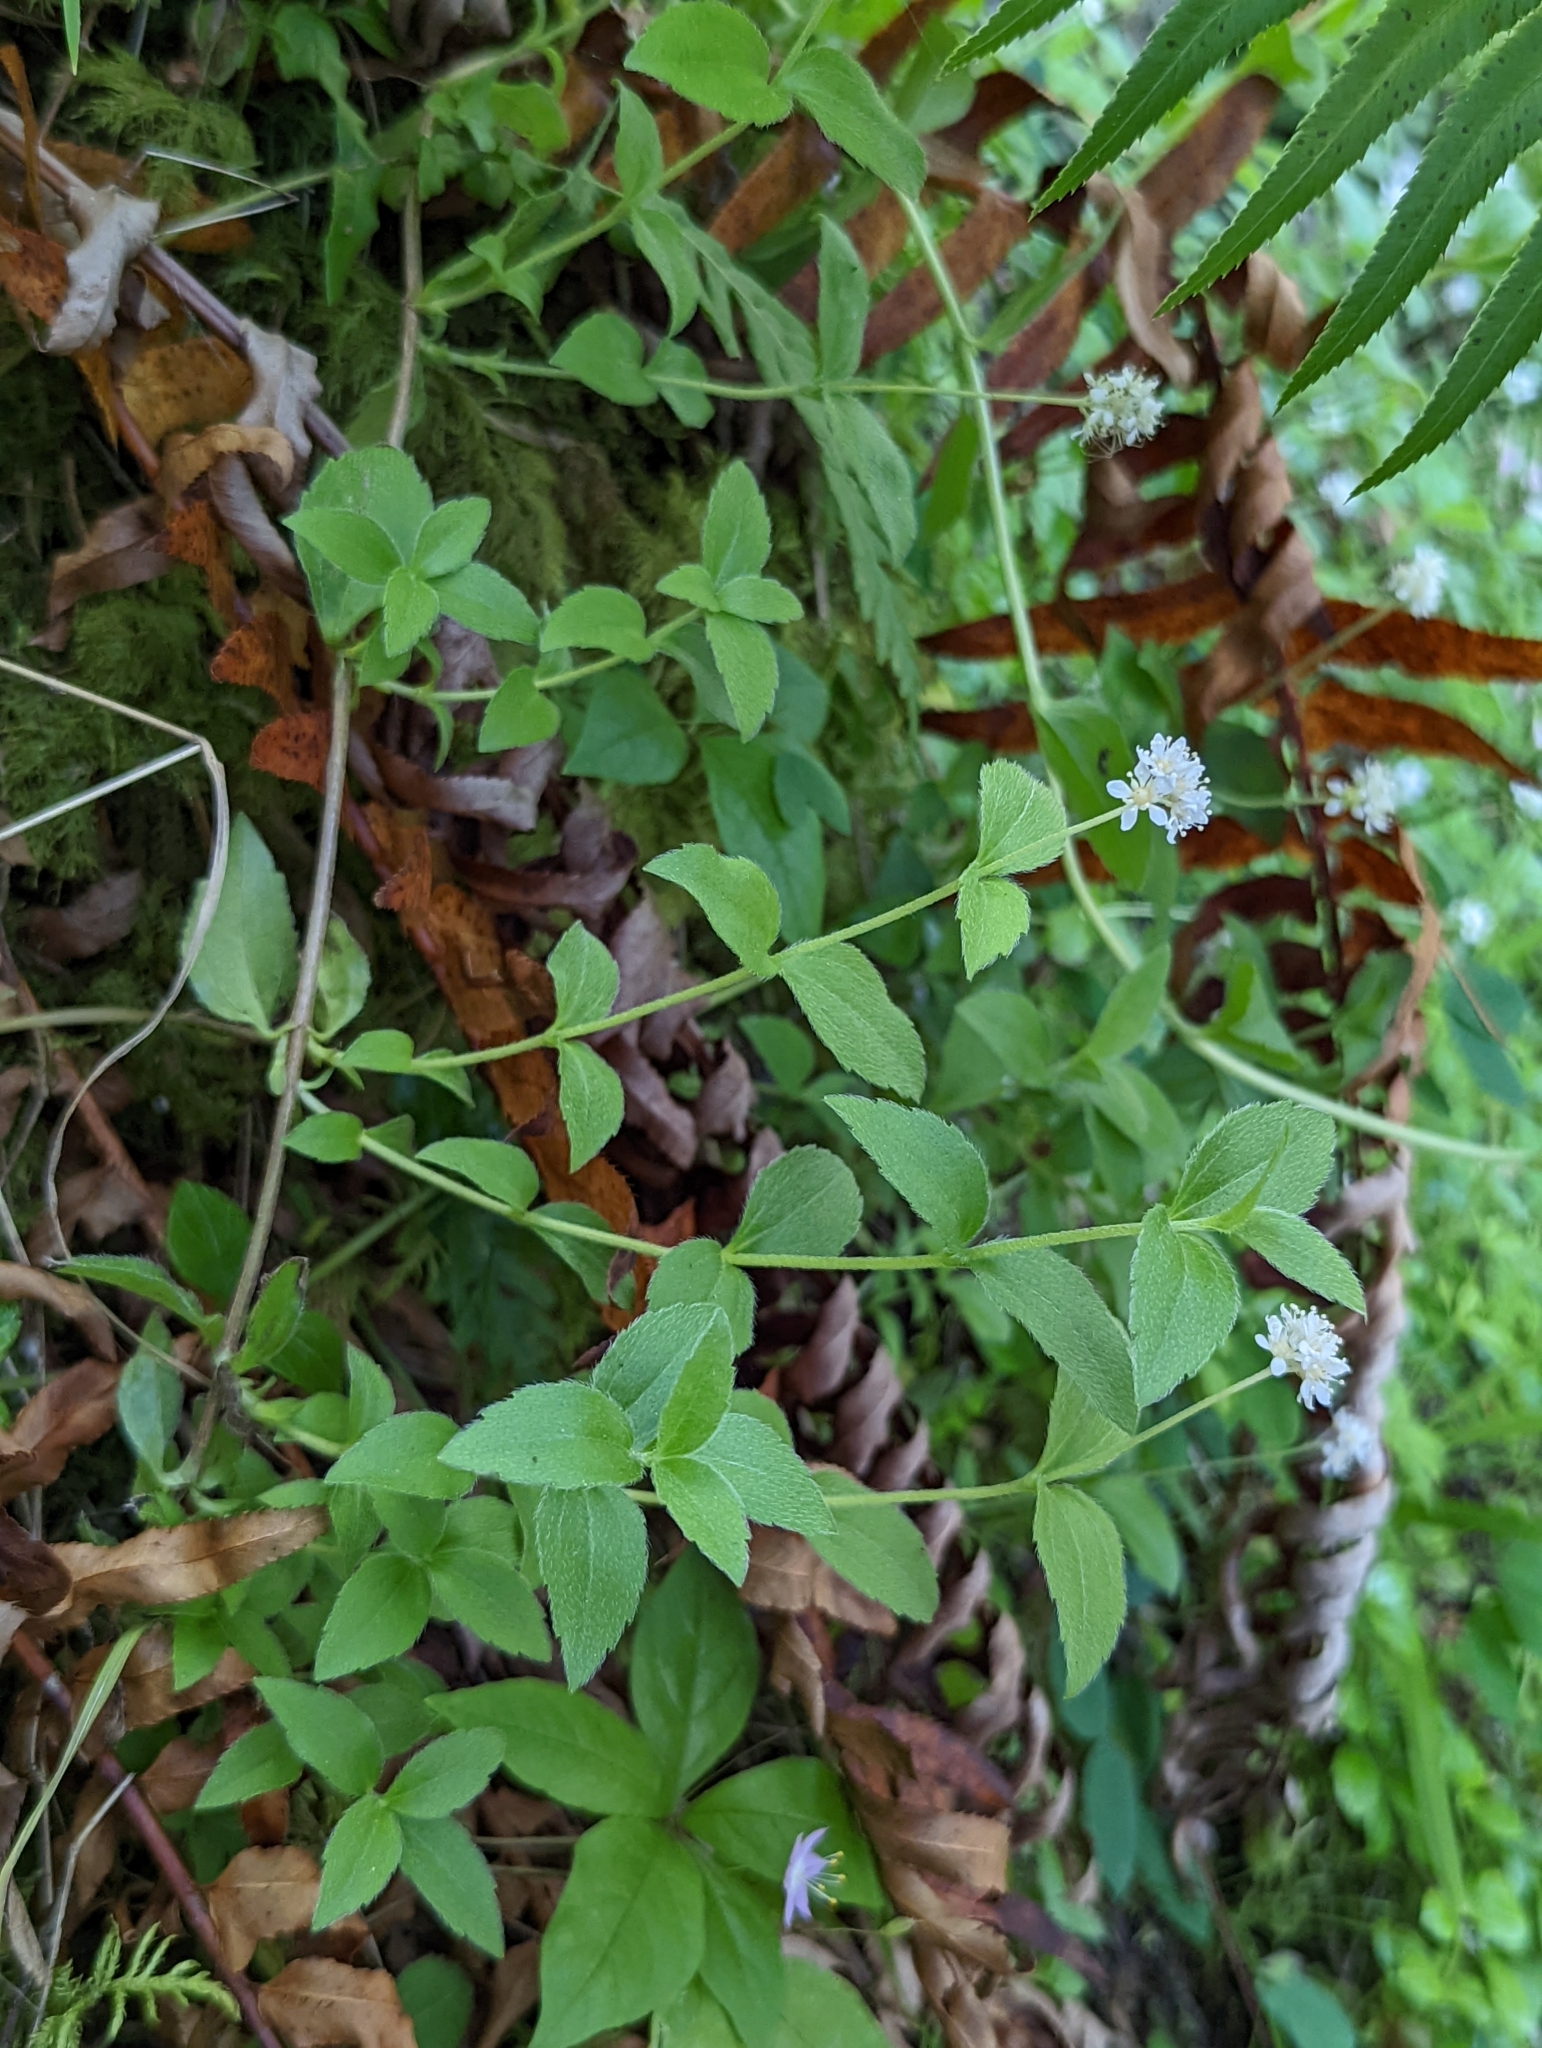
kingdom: Plantae
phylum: Tracheophyta
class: Magnoliopsida
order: Cornales
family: Hydrangeaceae
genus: Whipplea
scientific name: Whipplea modesta
